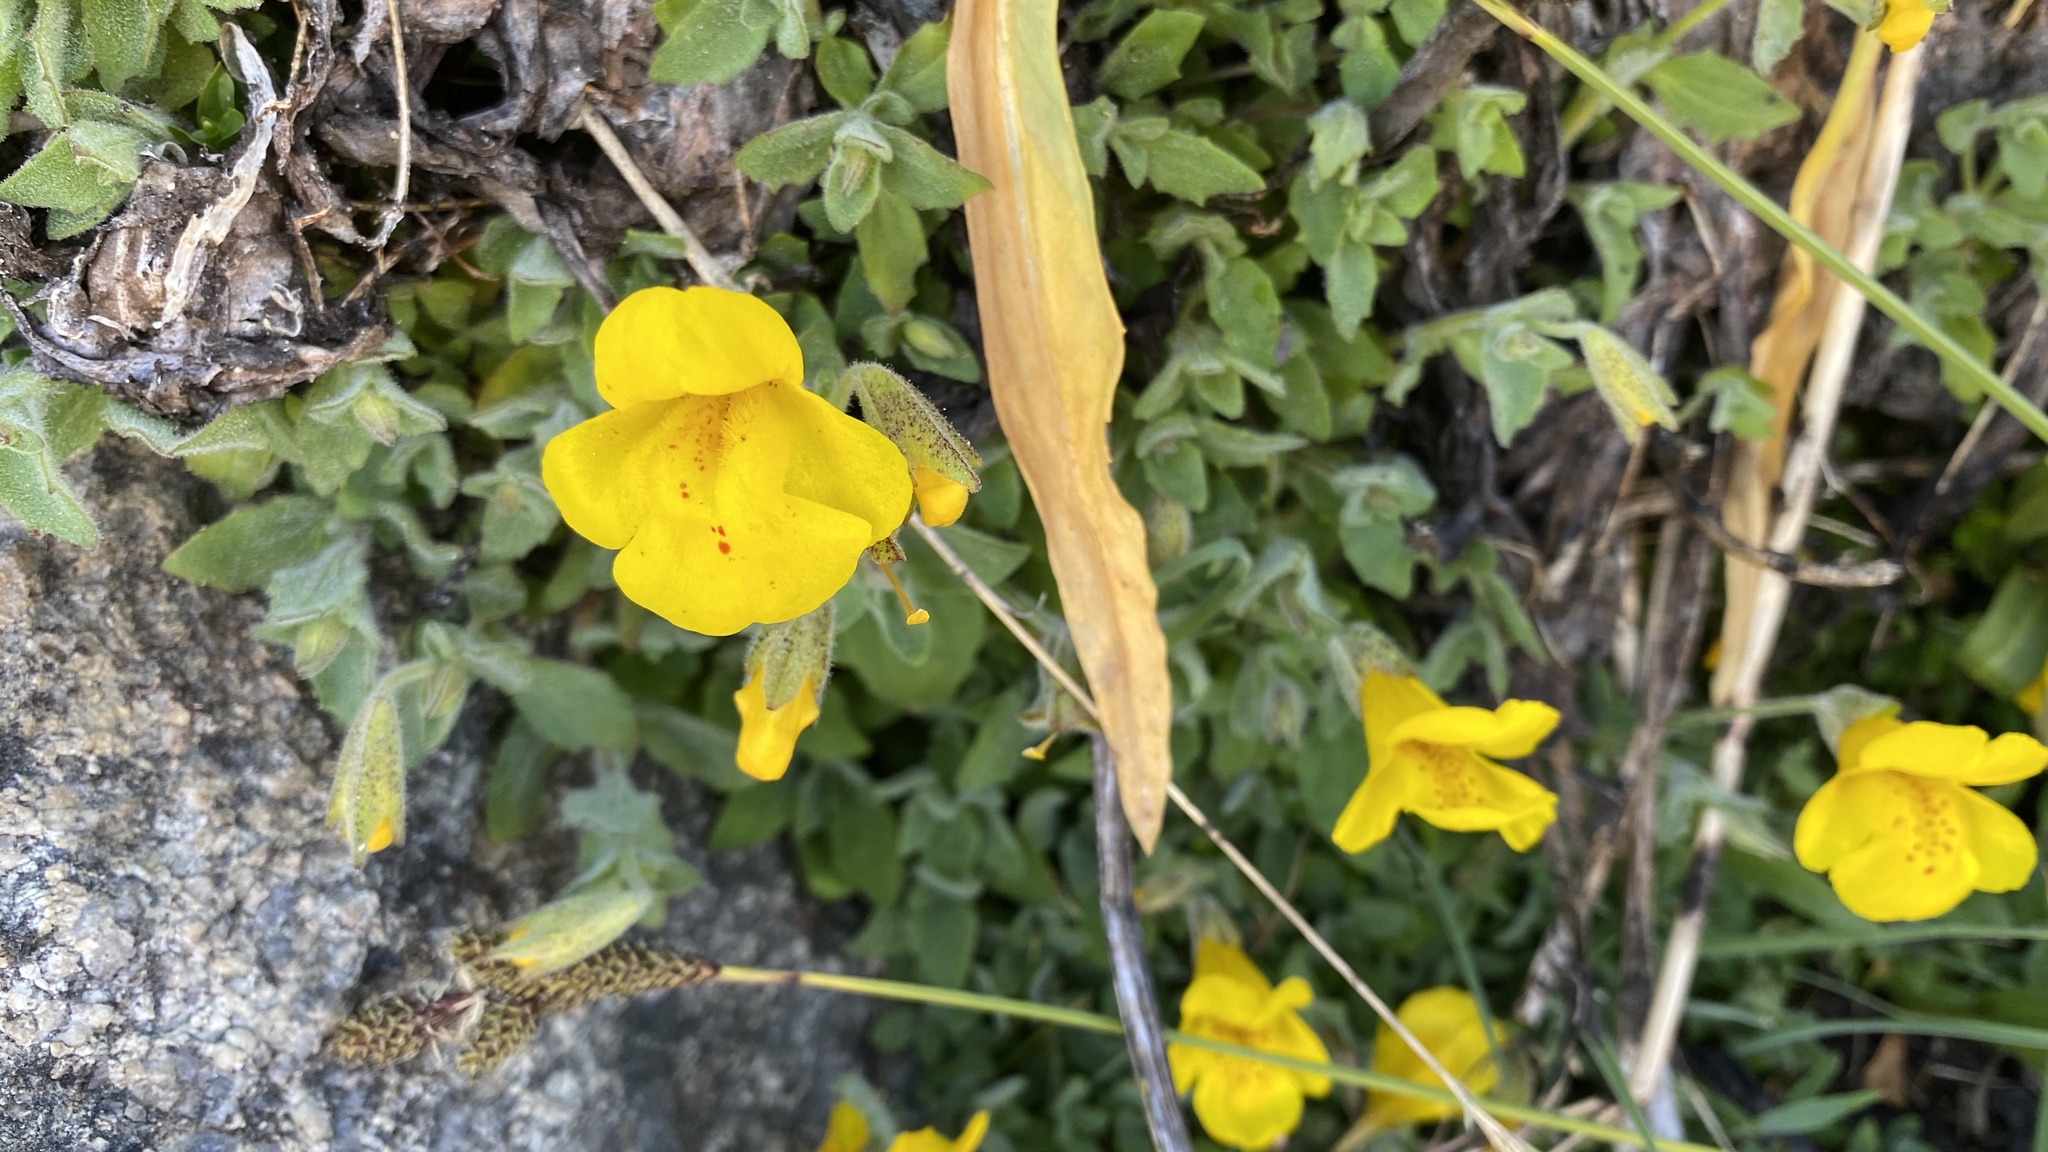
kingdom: Plantae
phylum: Tracheophyta
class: Magnoliopsida
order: Lamiales
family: Phrymaceae
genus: Erythranthe
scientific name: Erythranthe tilingii
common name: Subalpine monkey-flower
